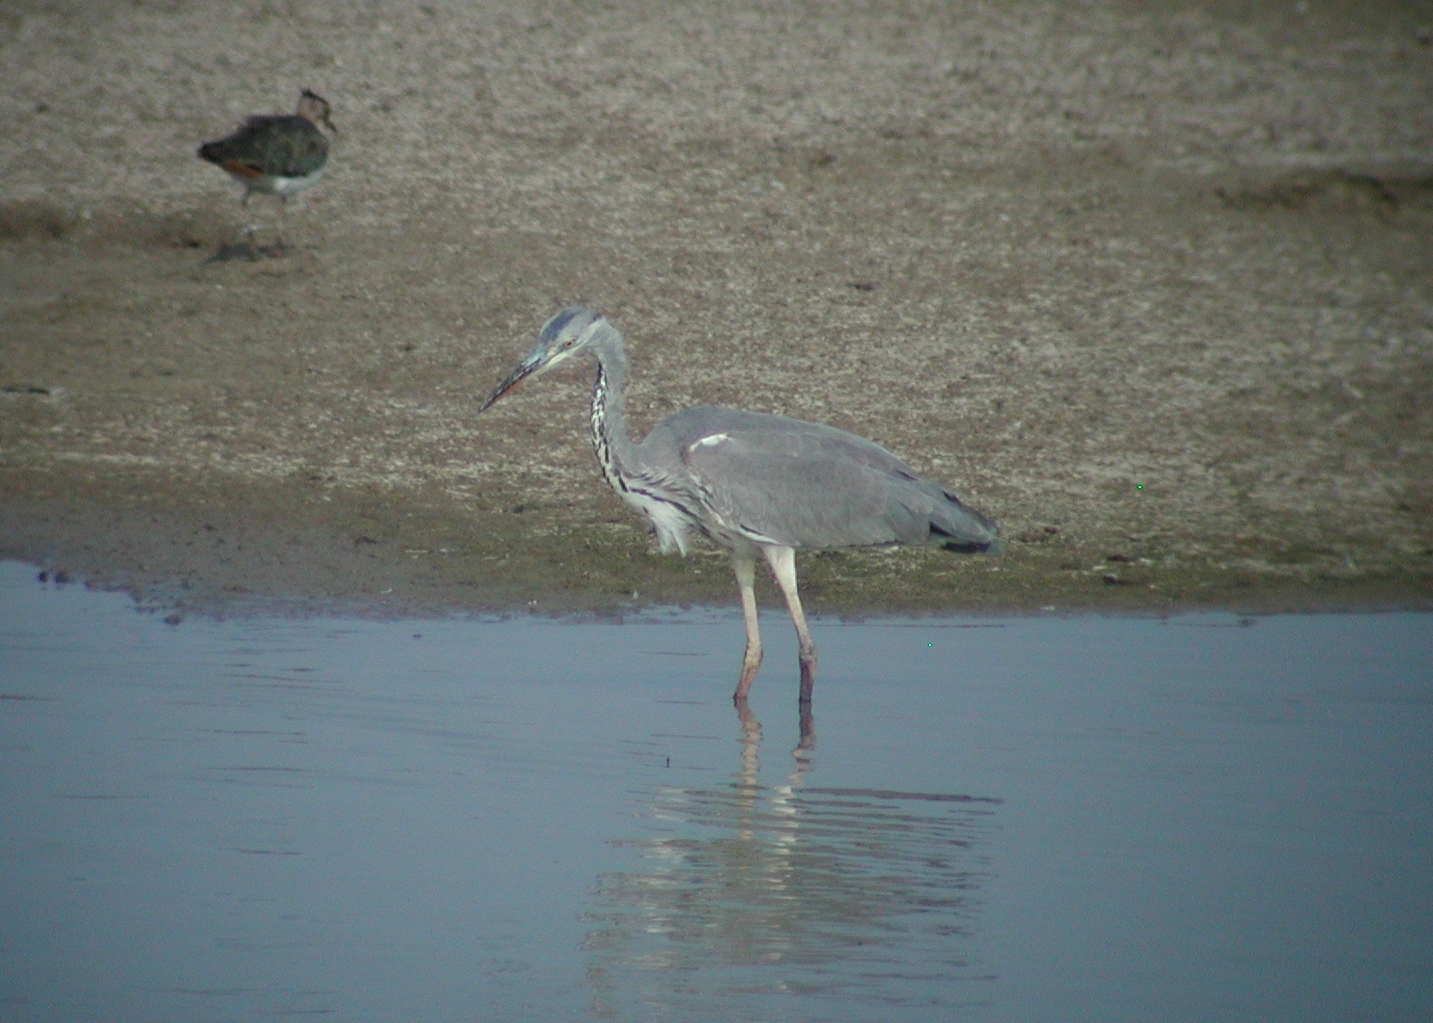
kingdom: Animalia
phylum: Chordata
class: Aves
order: Pelecaniformes
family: Ardeidae
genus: Ardea
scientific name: Ardea cinerea
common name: Grey heron
